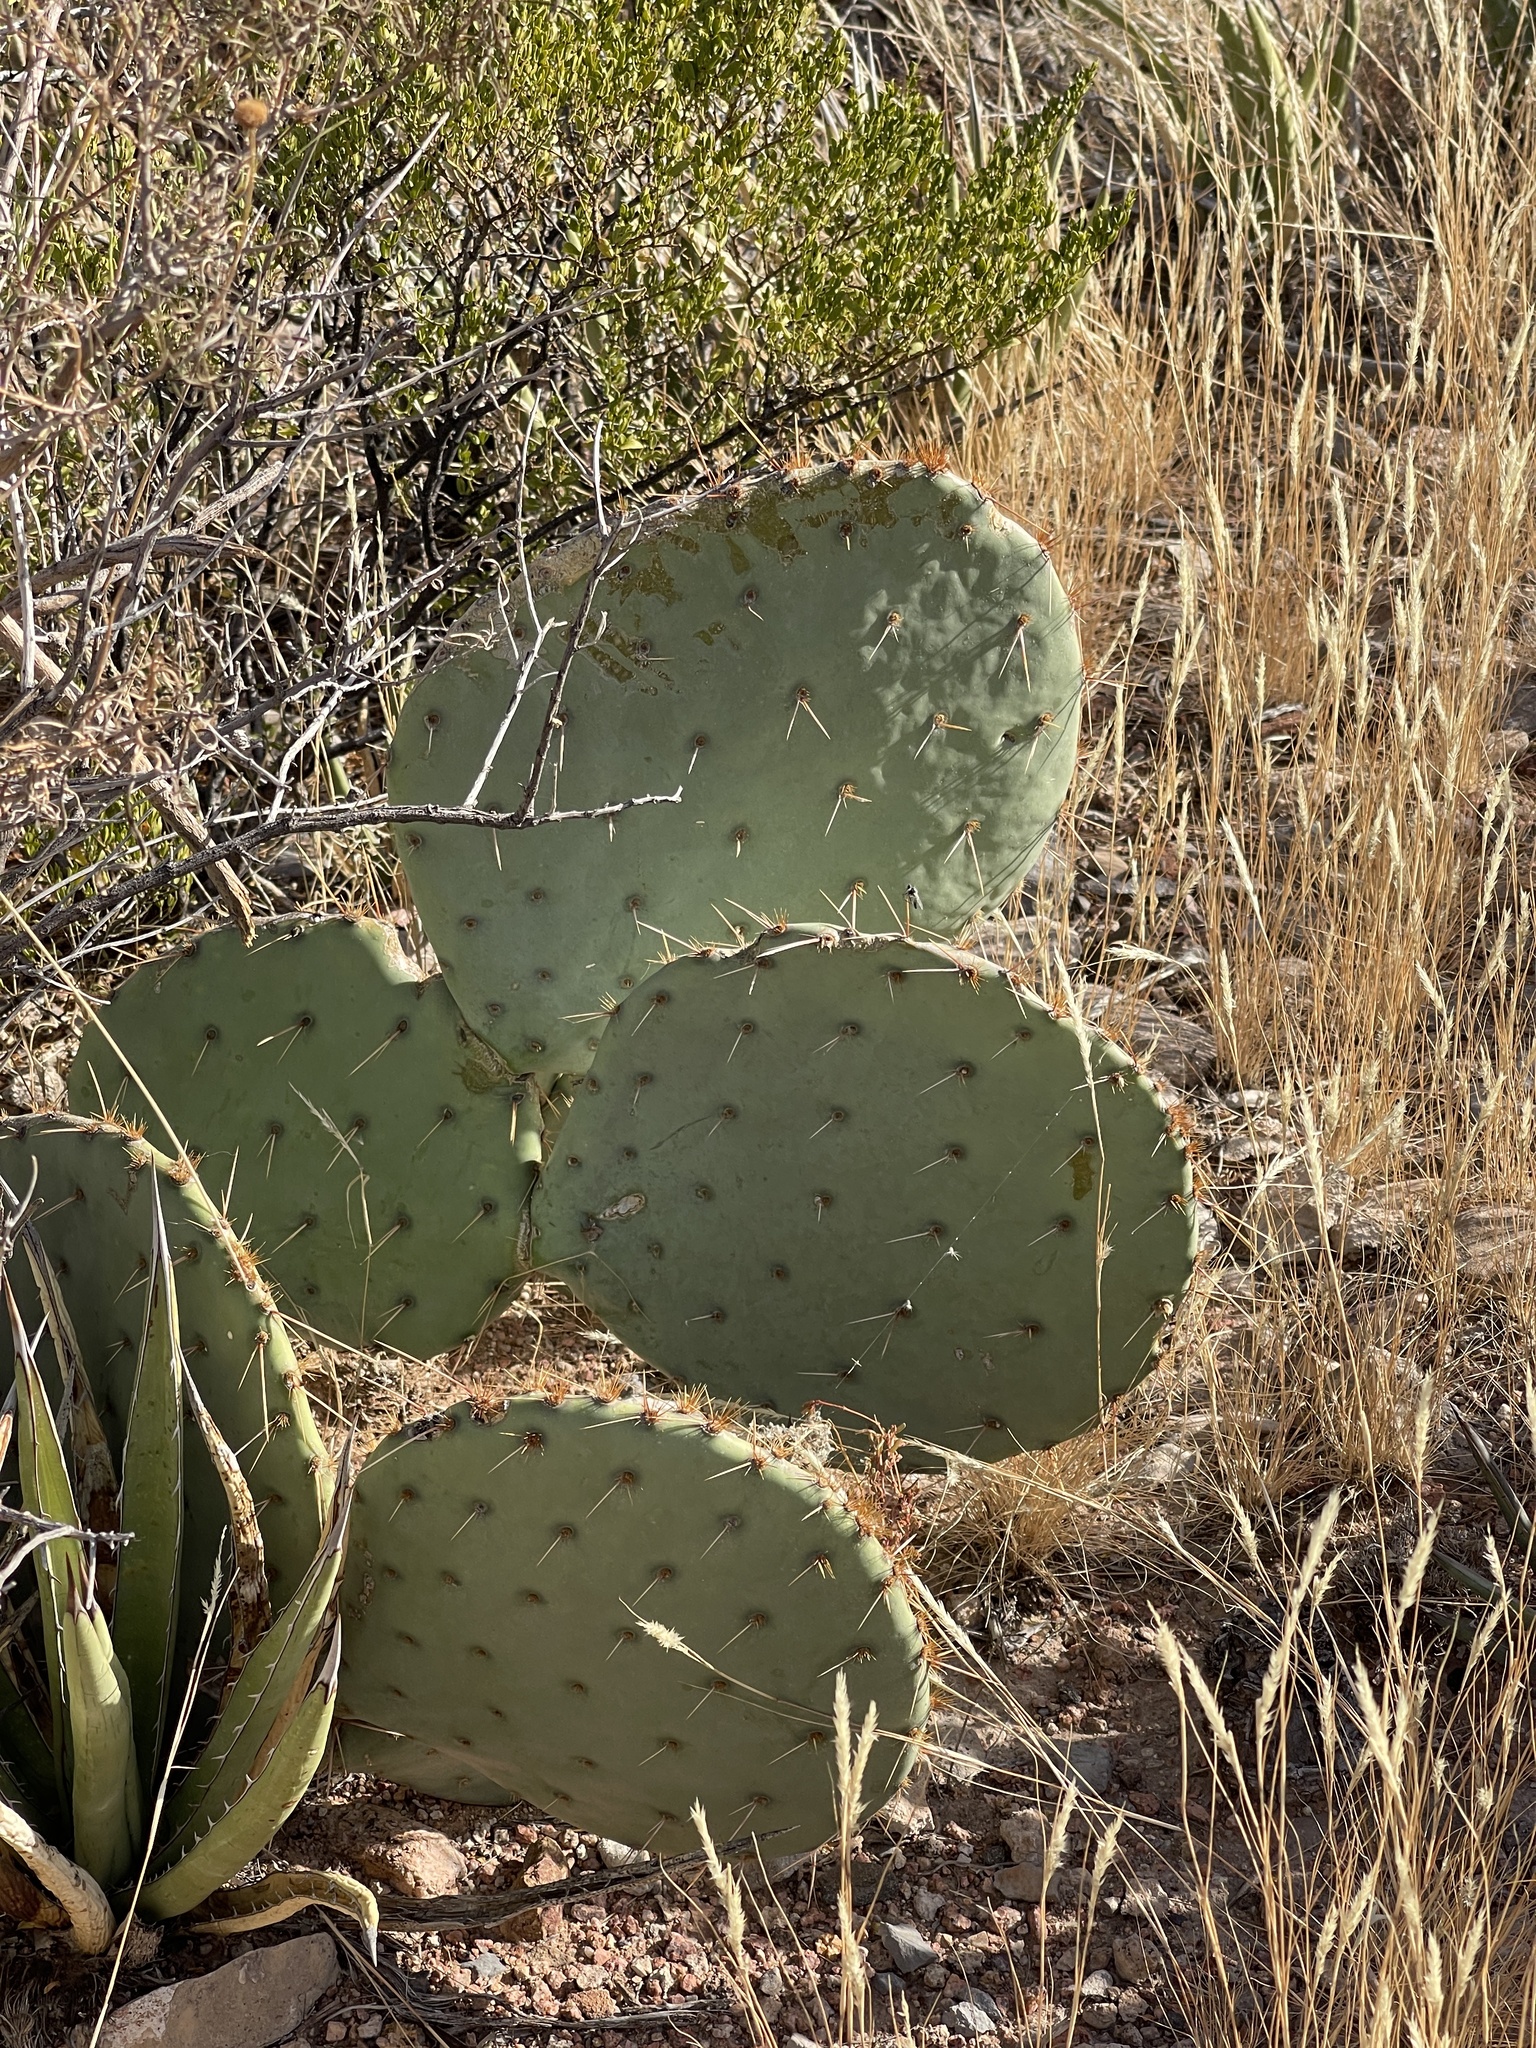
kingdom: Plantae
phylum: Tracheophyta
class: Magnoliopsida
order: Caryophyllales
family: Cactaceae
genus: Opuntia
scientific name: Opuntia engelmannii
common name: Cactus-apple
